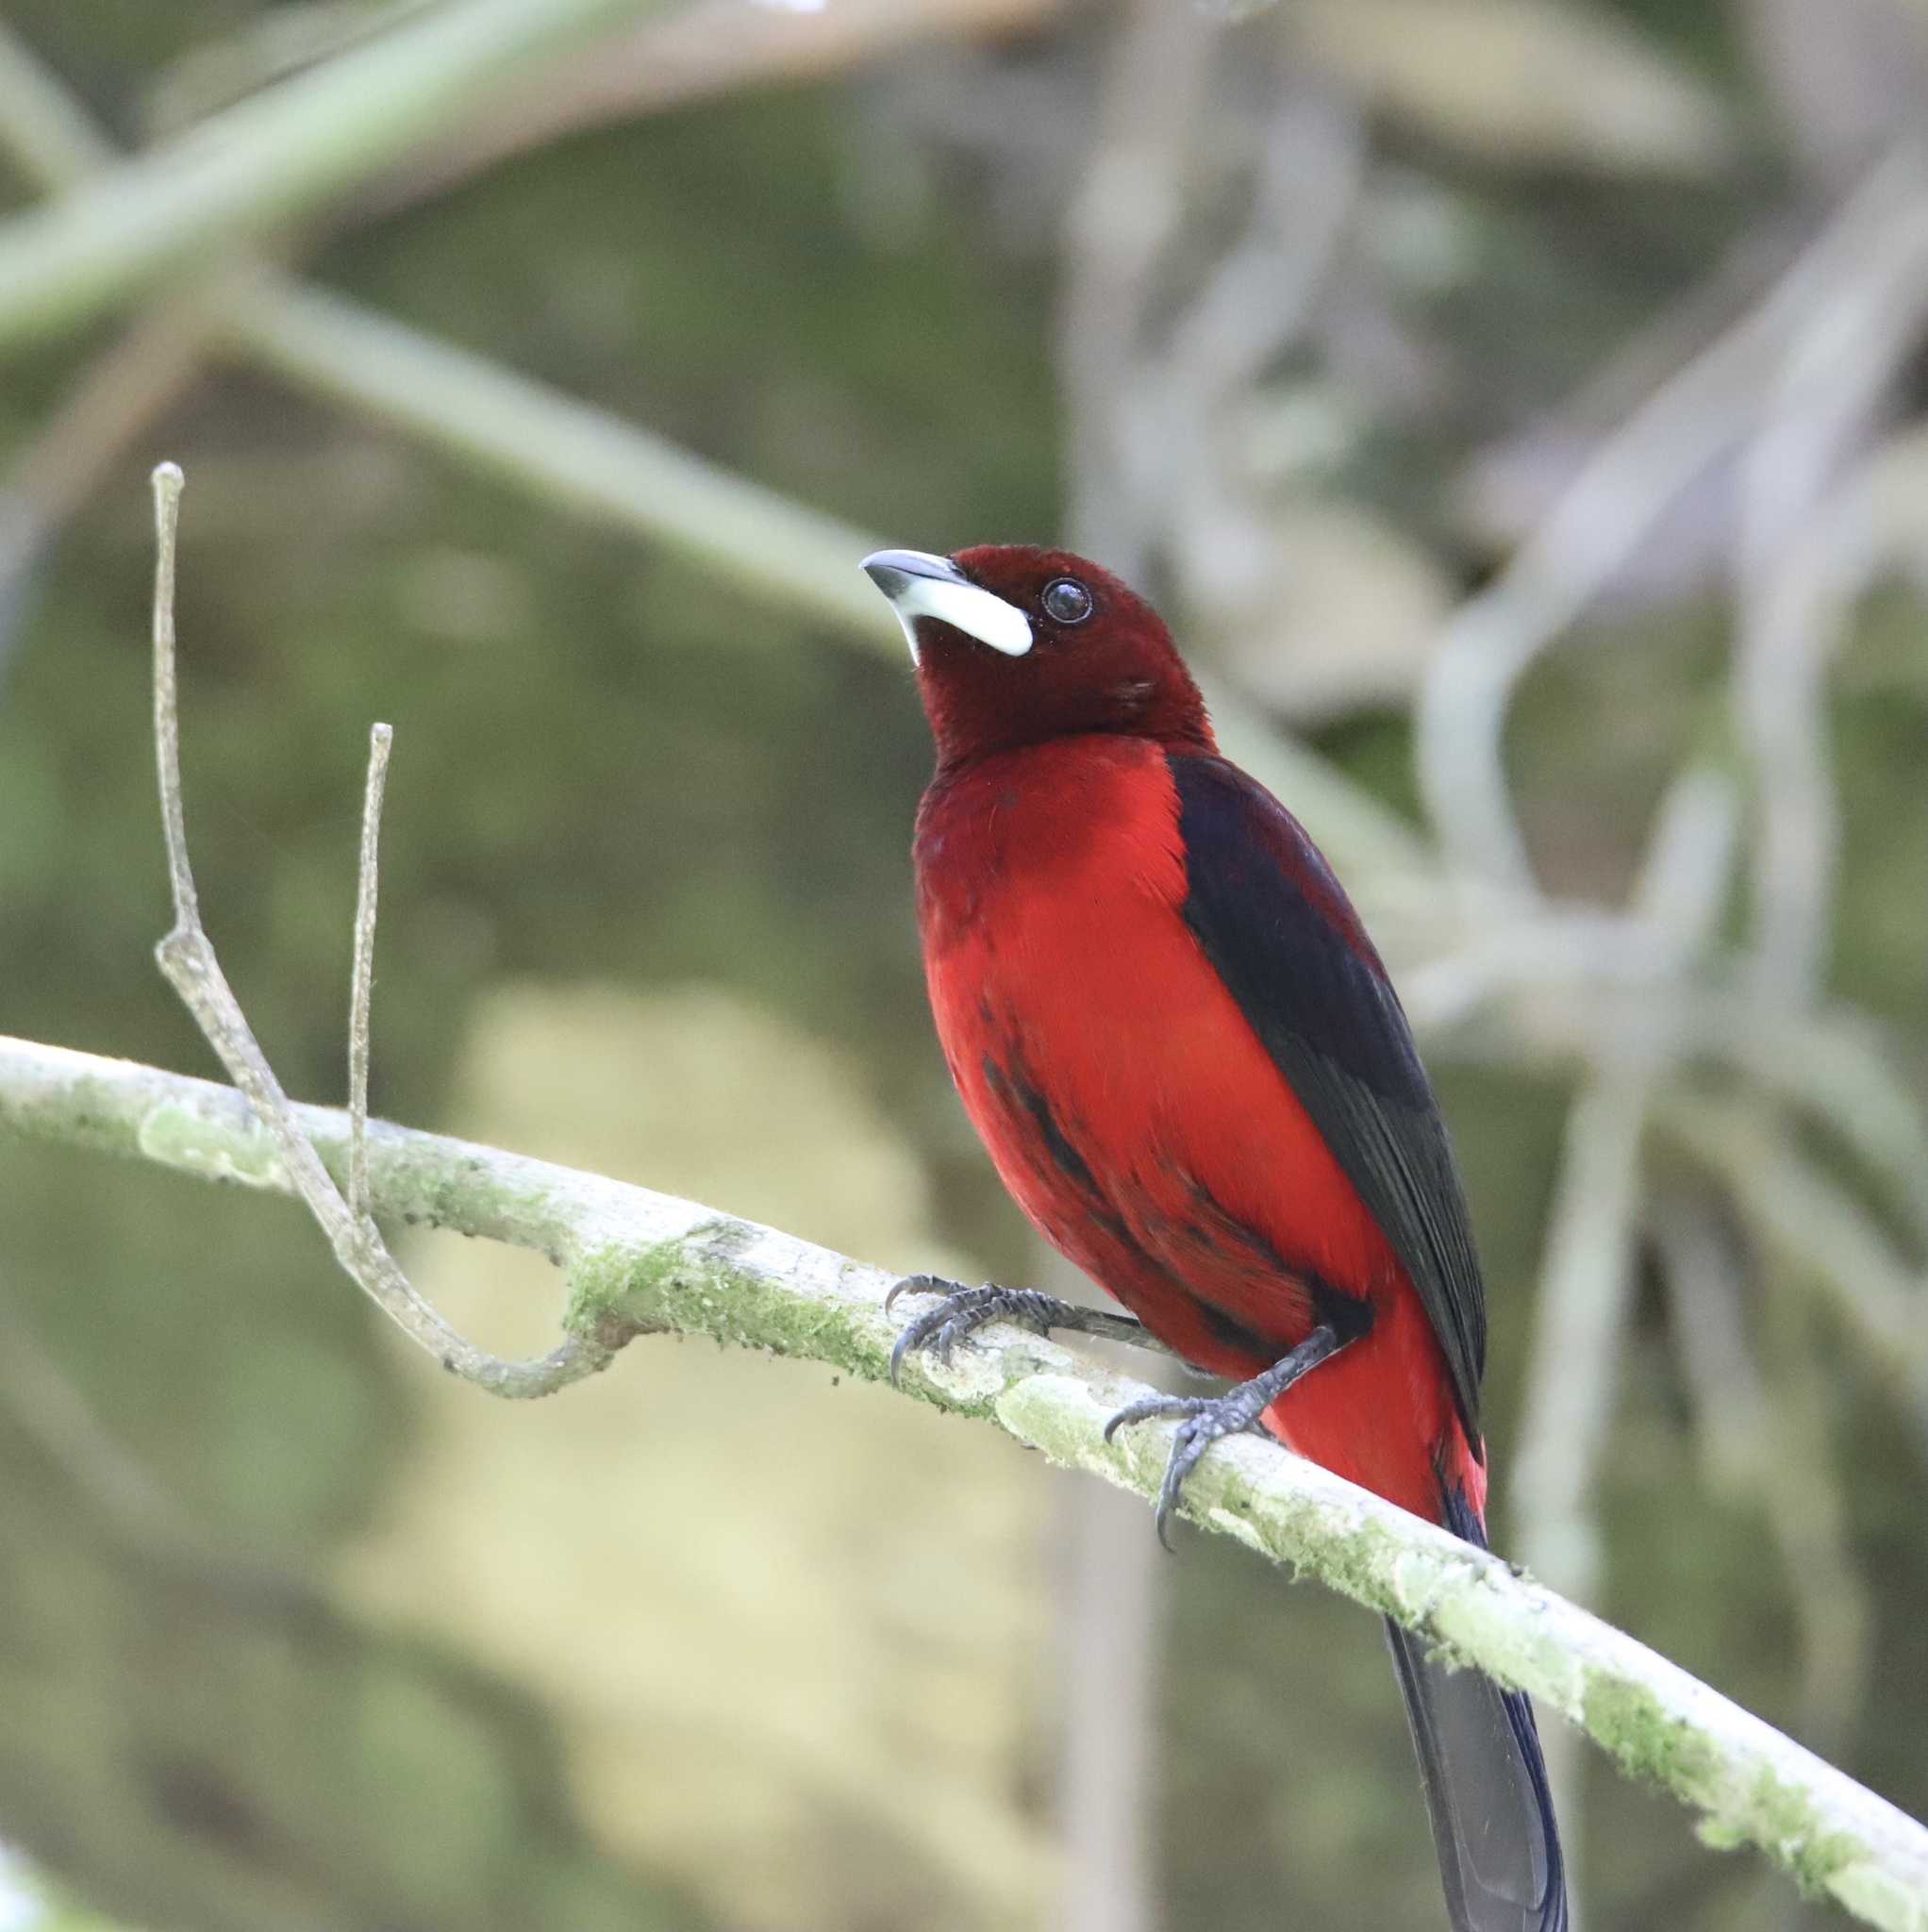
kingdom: Animalia
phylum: Chordata
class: Aves
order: Passeriformes
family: Thraupidae
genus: Ramphocelus
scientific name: Ramphocelus dimidiatus
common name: Crimson-backed tanager
